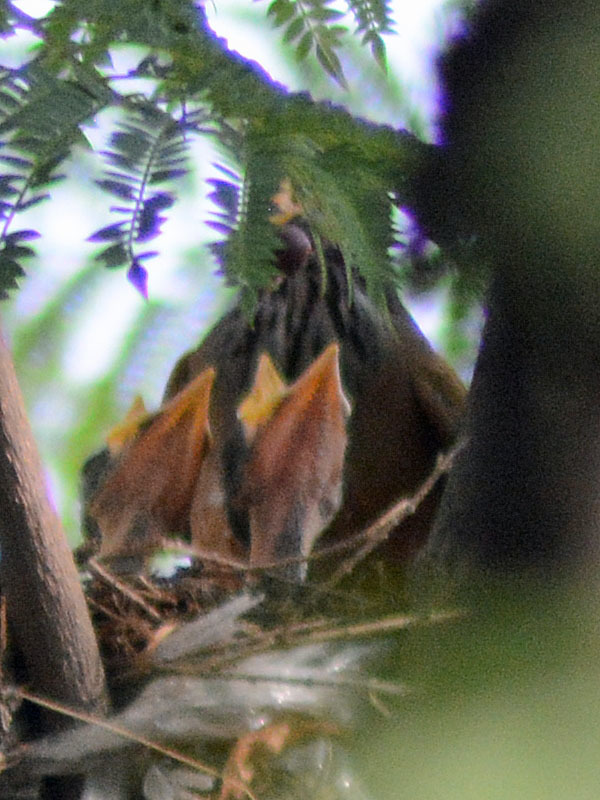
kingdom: Animalia
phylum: Chordata
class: Aves
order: Passeriformes
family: Turdidae
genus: Turdus
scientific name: Turdus rufopalliatus
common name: Rufous-backed robin
